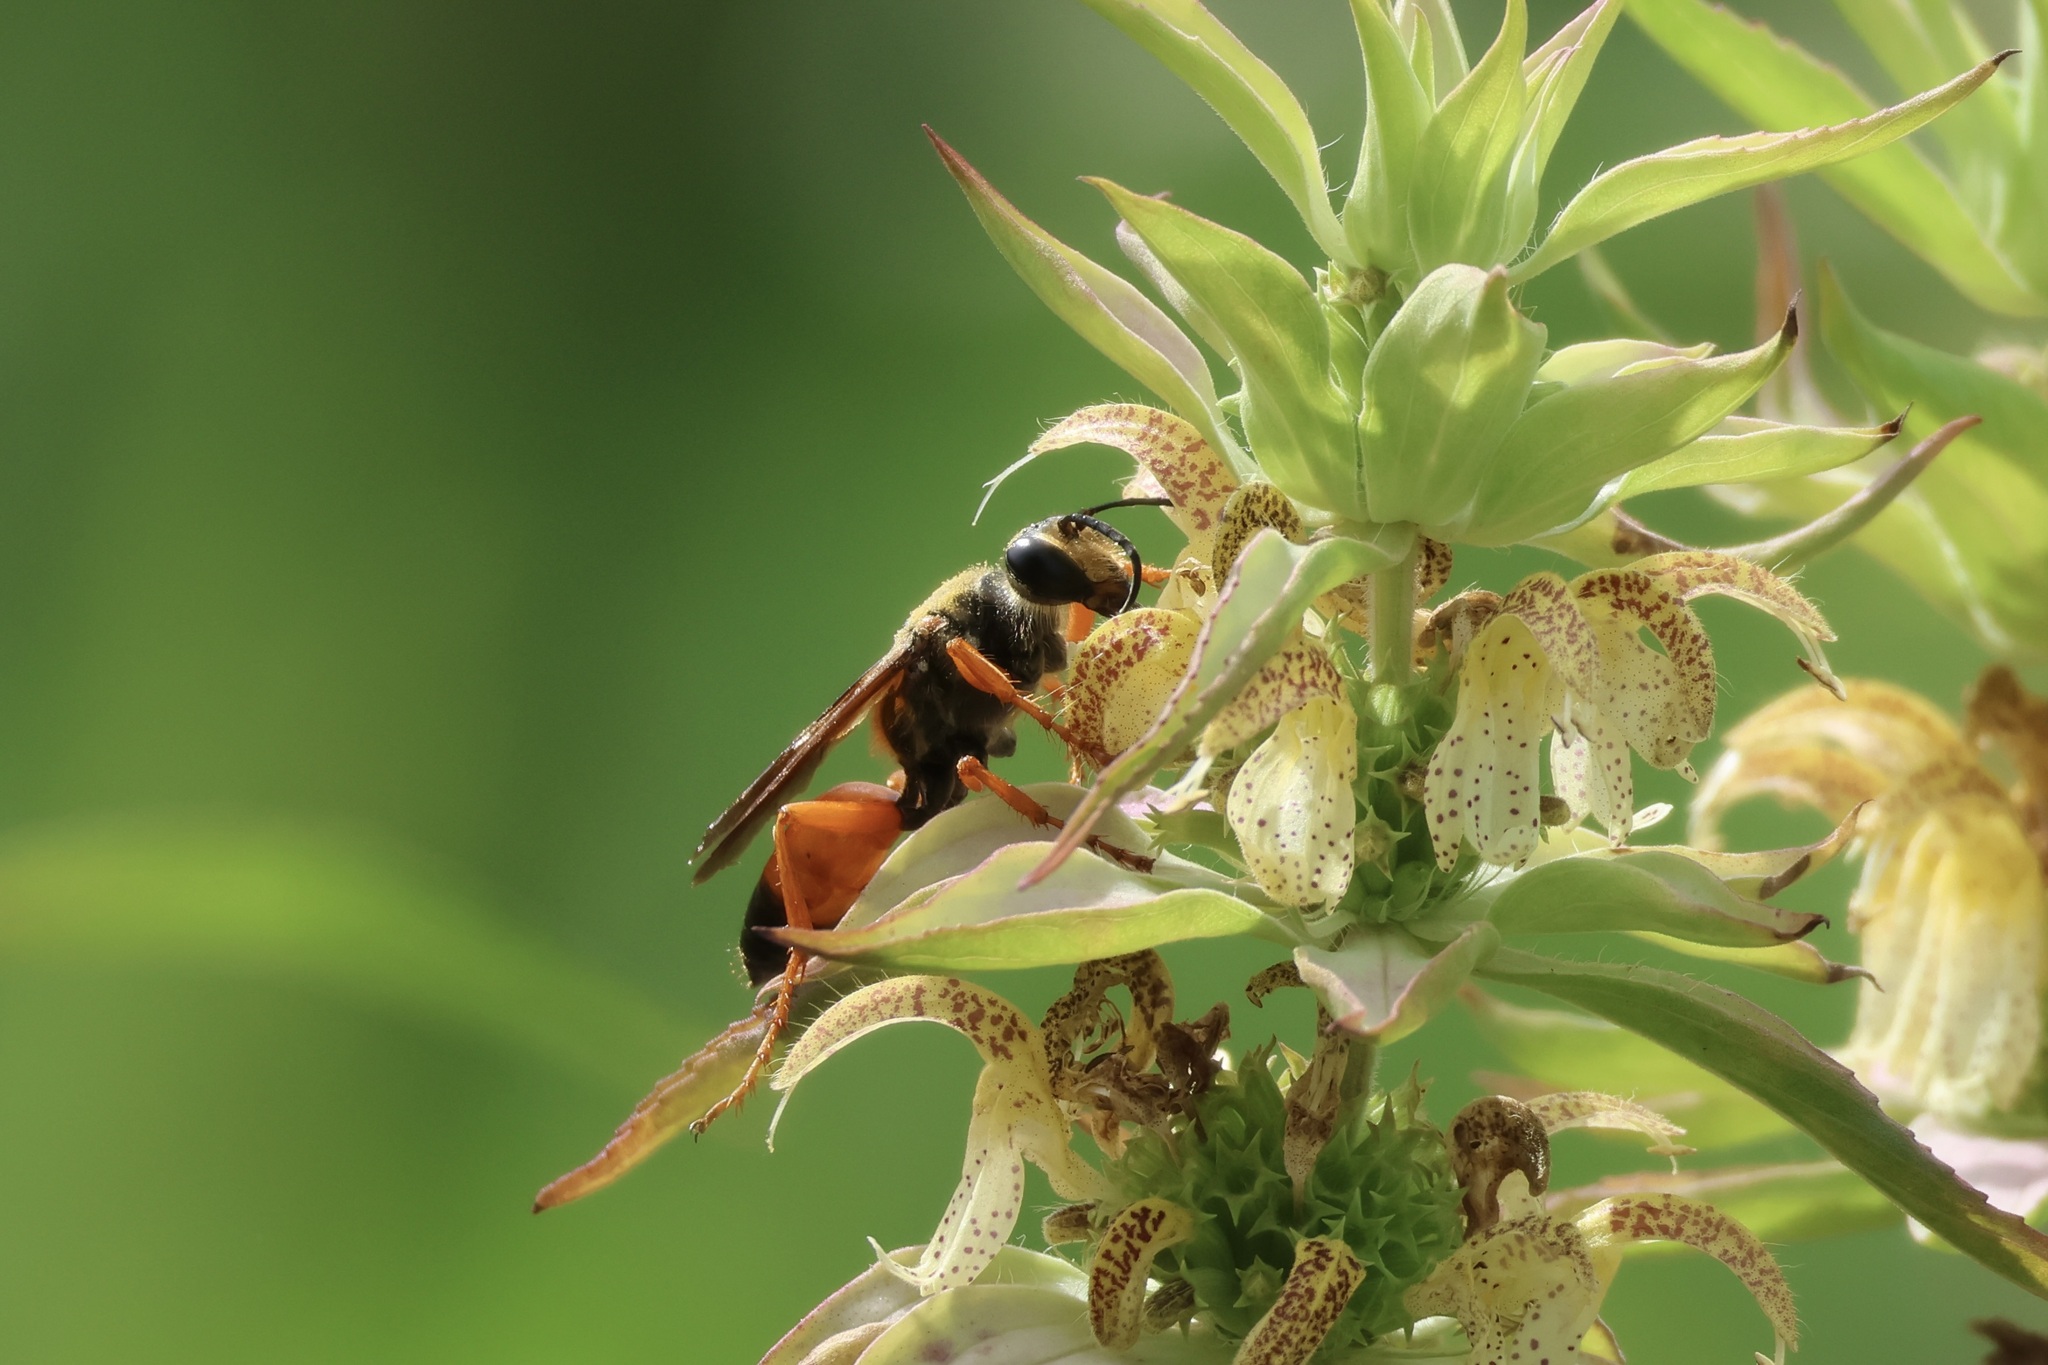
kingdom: Animalia
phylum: Arthropoda
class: Insecta
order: Hymenoptera
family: Sphecidae
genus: Sphex
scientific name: Sphex ichneumoneus
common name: Great golden digger wasp
